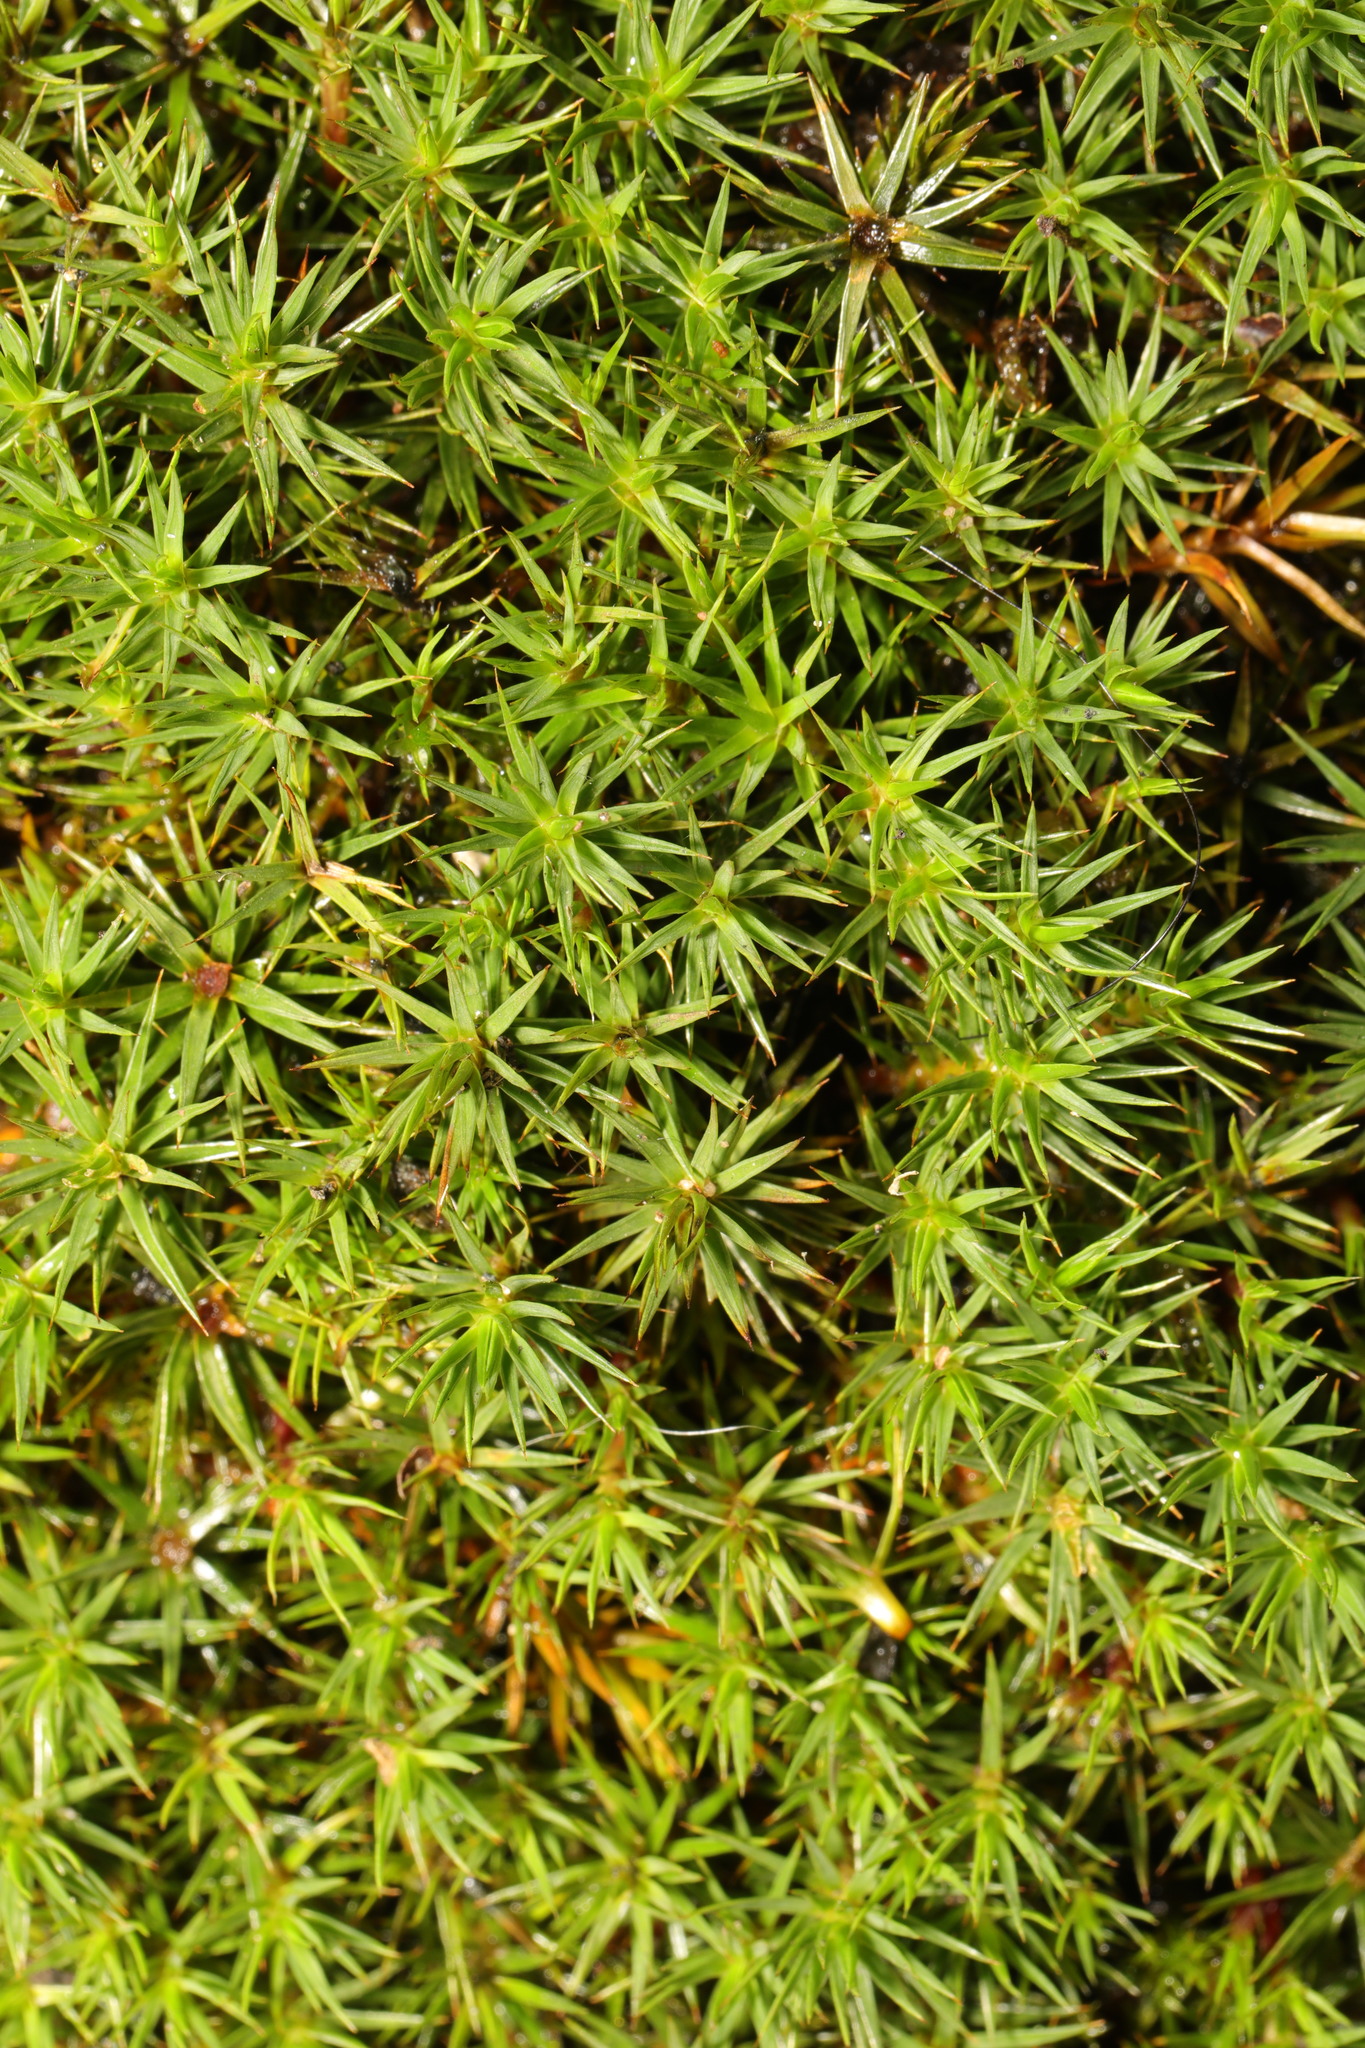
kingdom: Plantae
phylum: Bryophyta
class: Polytrichopsida
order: Polytrichales
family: Polytrichaceae
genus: Polytrichum
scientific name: Polytrichum juniperinum
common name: Juniper haircap moss
